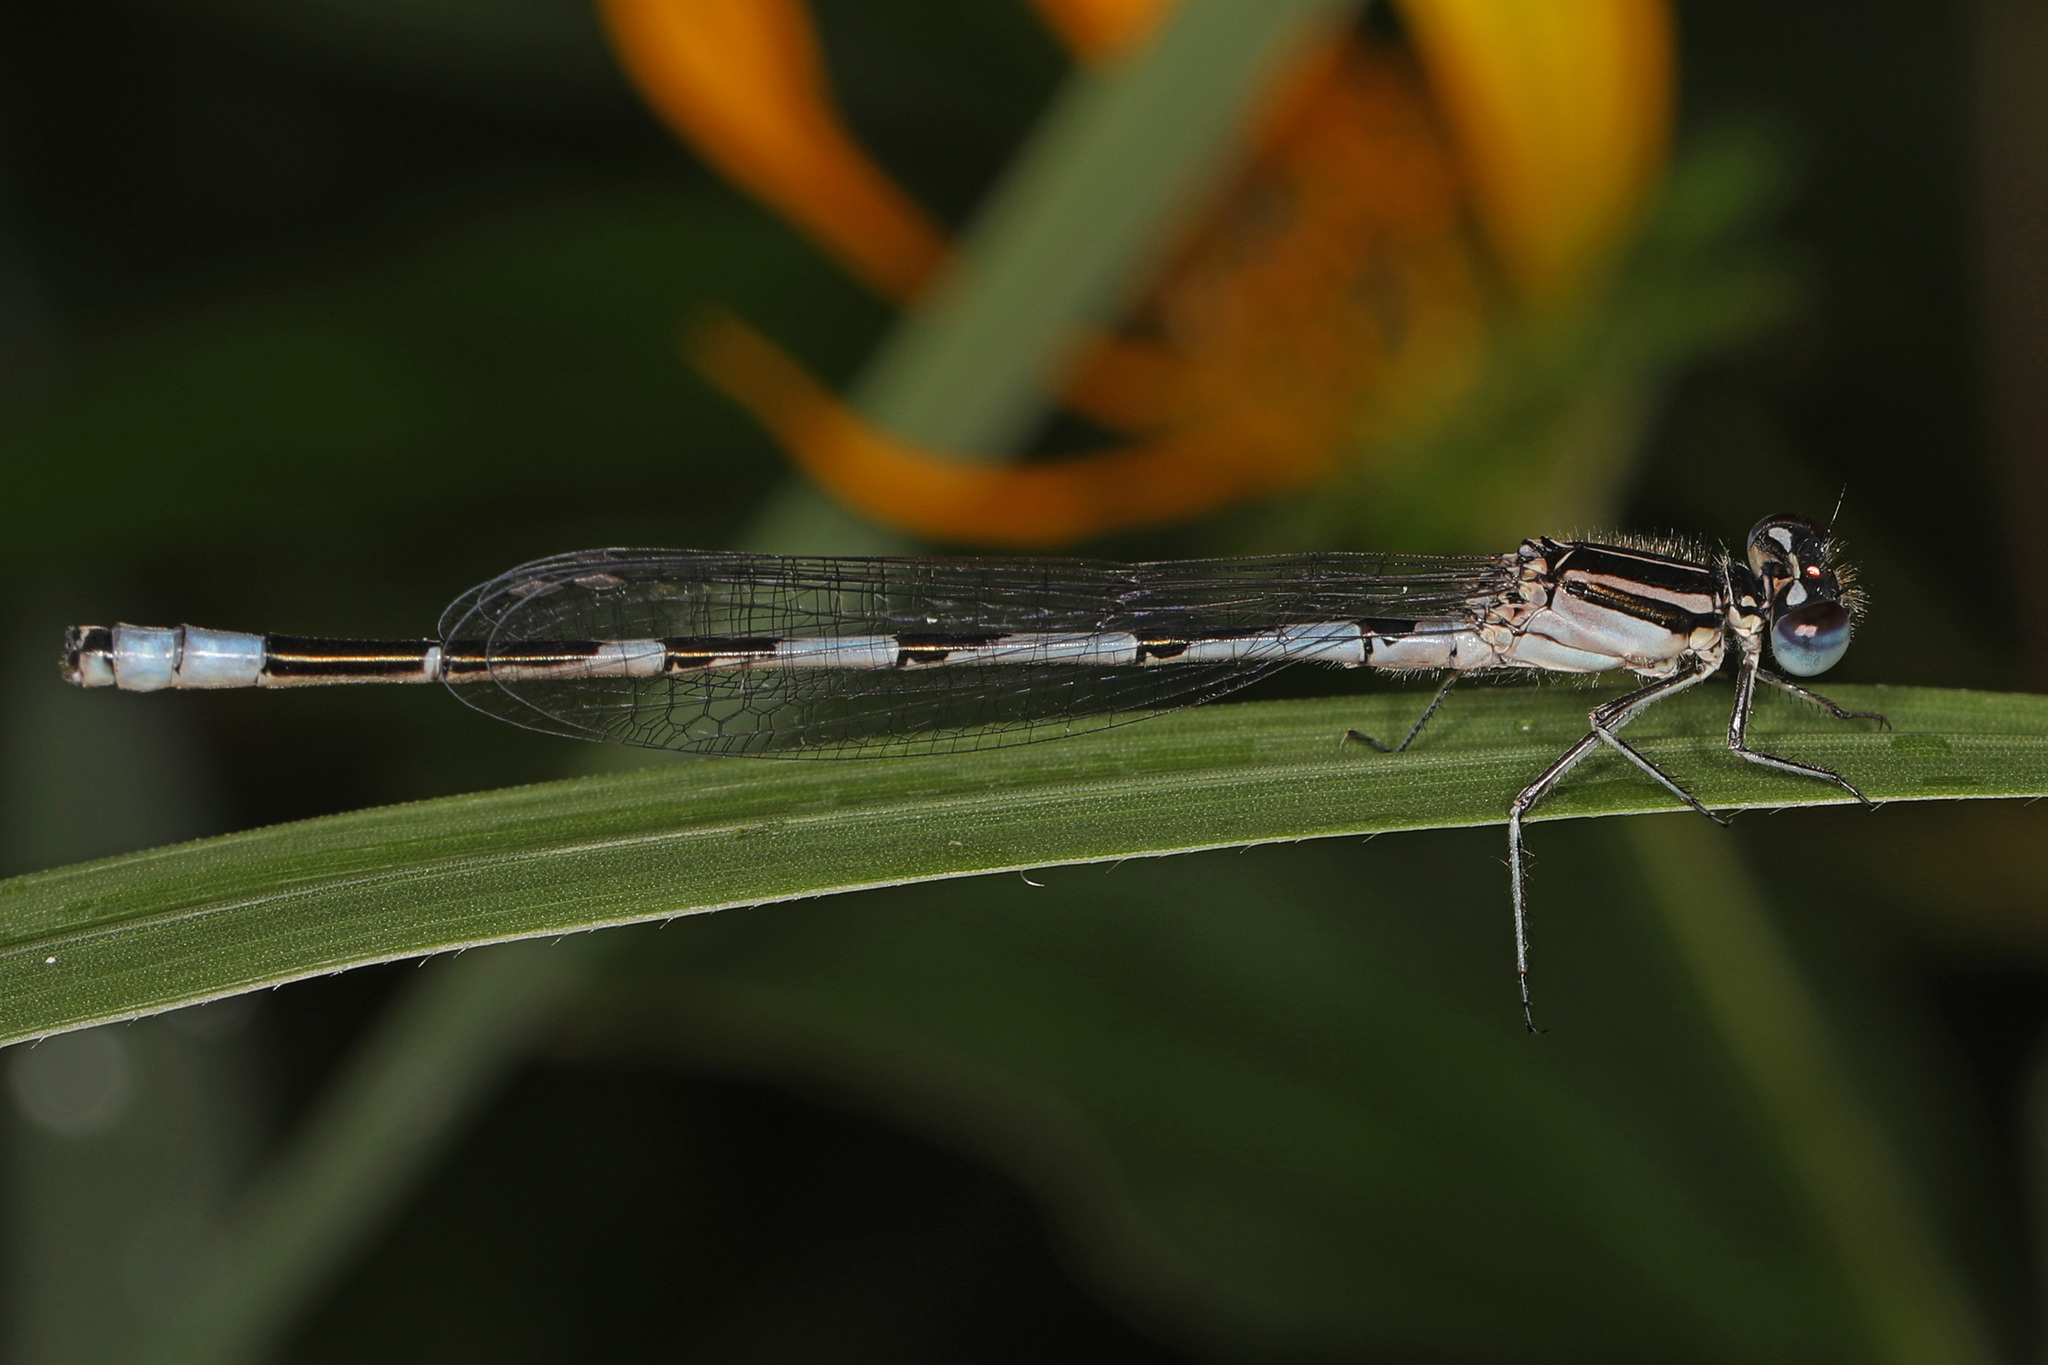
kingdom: Animalia
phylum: Arthropoda
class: Insecta
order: Odonata
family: Coenagrionidae
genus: Enallagma
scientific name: Enallagma durum
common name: Big bluet
